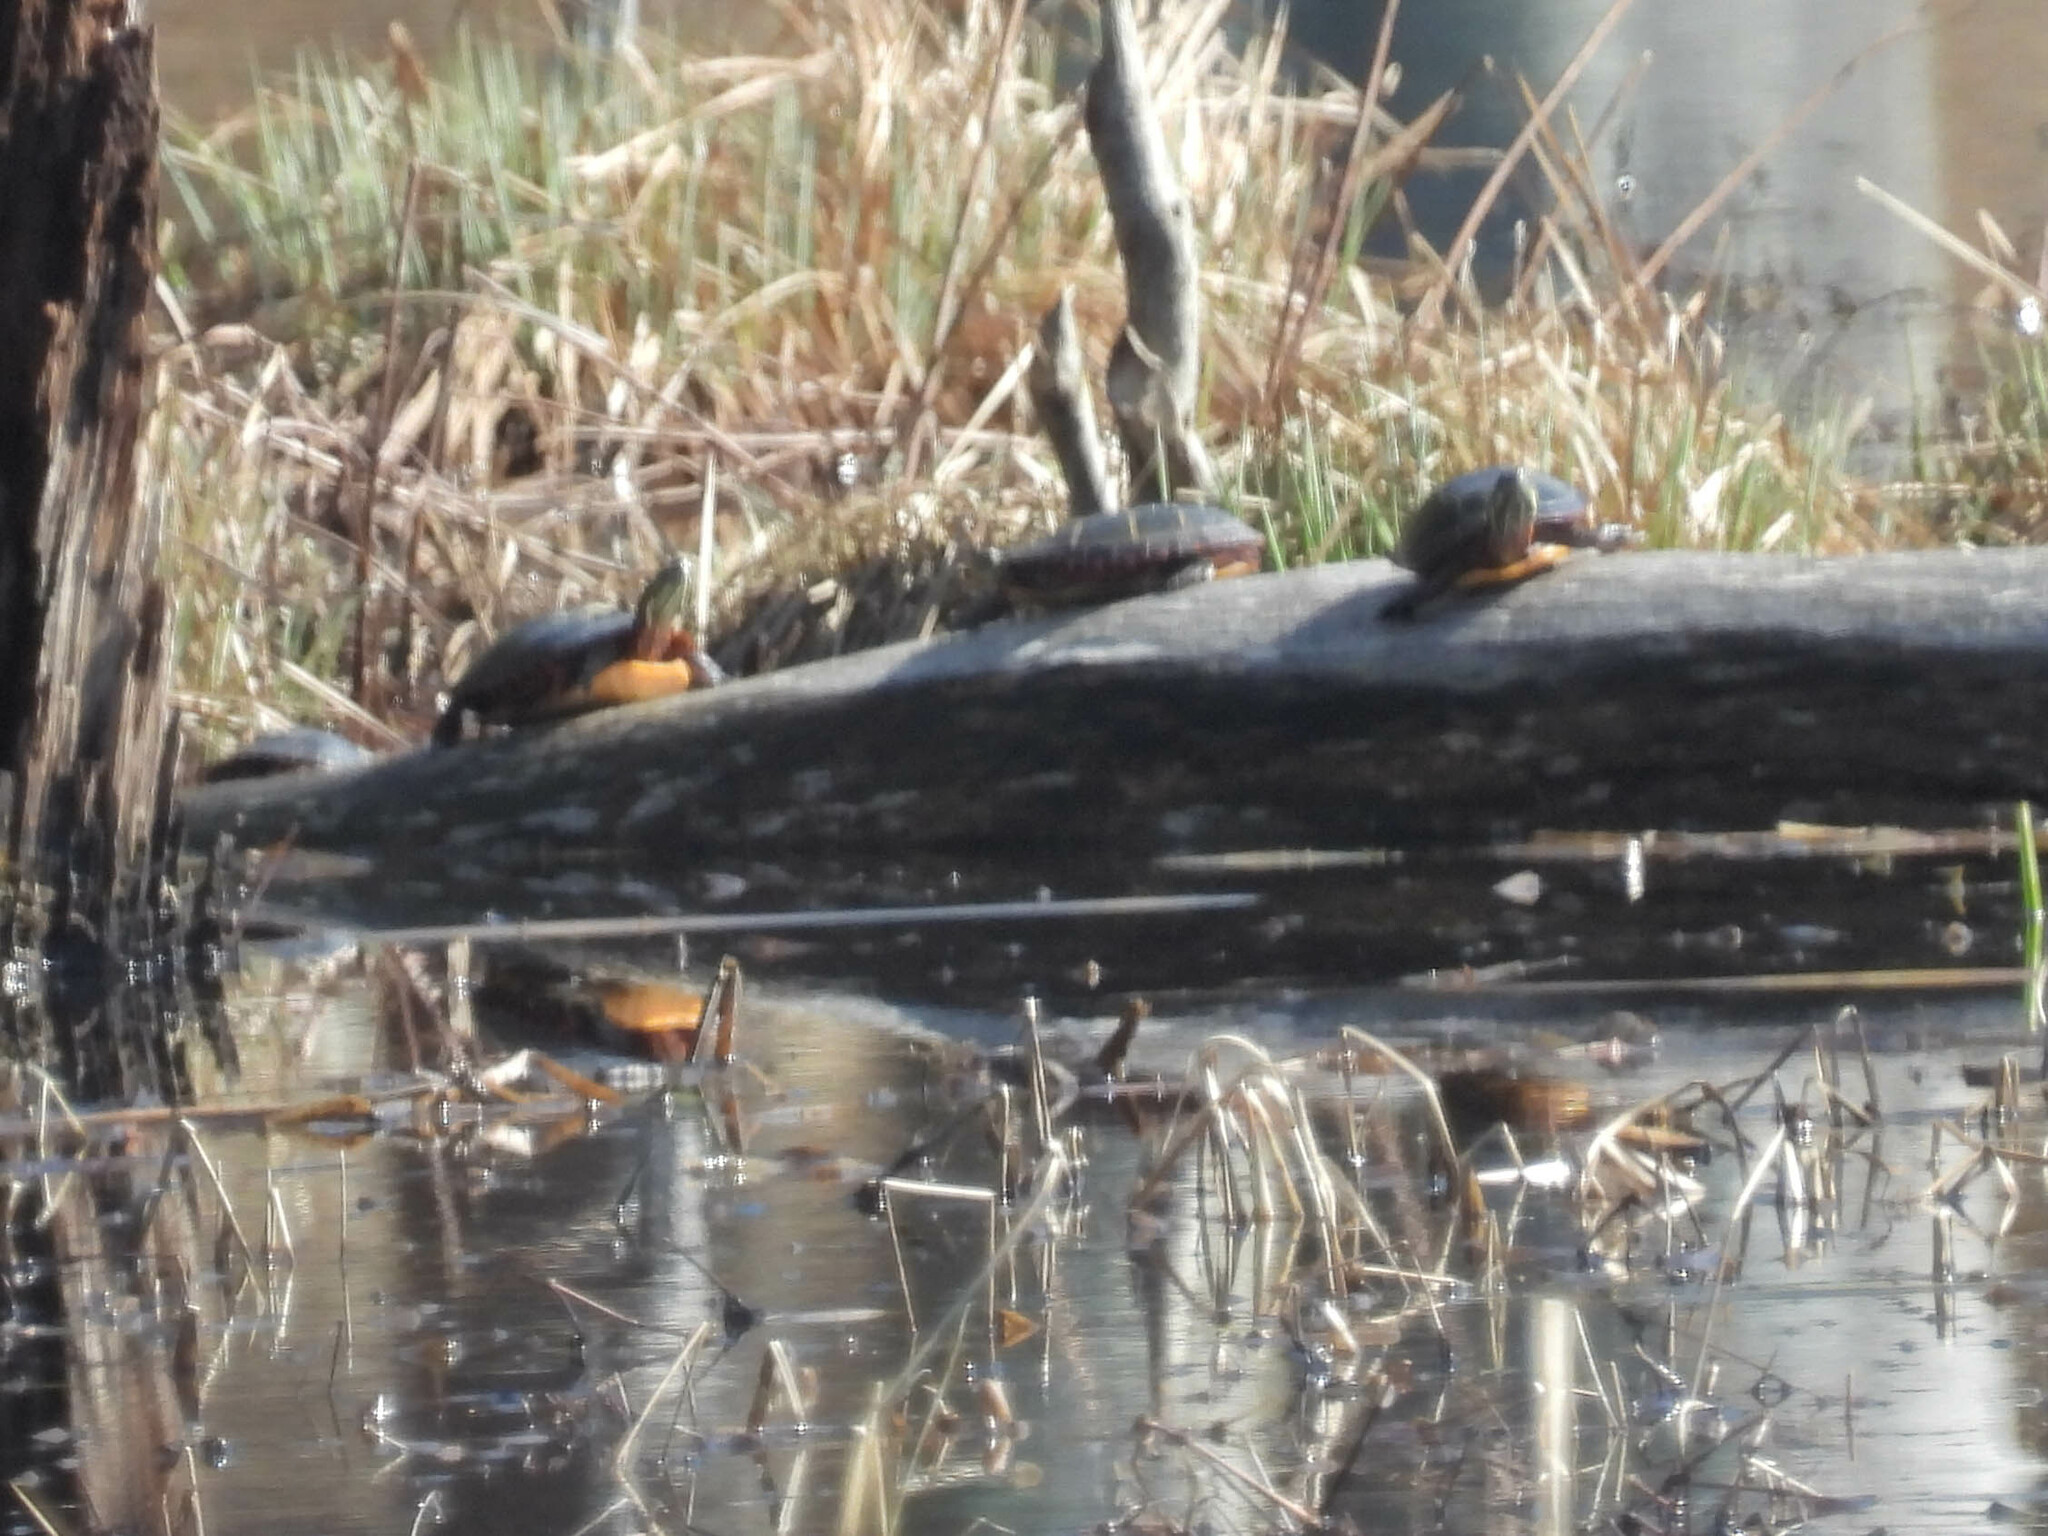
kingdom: Animalia
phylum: Chordata
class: Testudines
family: Emydidae
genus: Chrysemys
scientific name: Chrysemys picta
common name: Painted turtle
